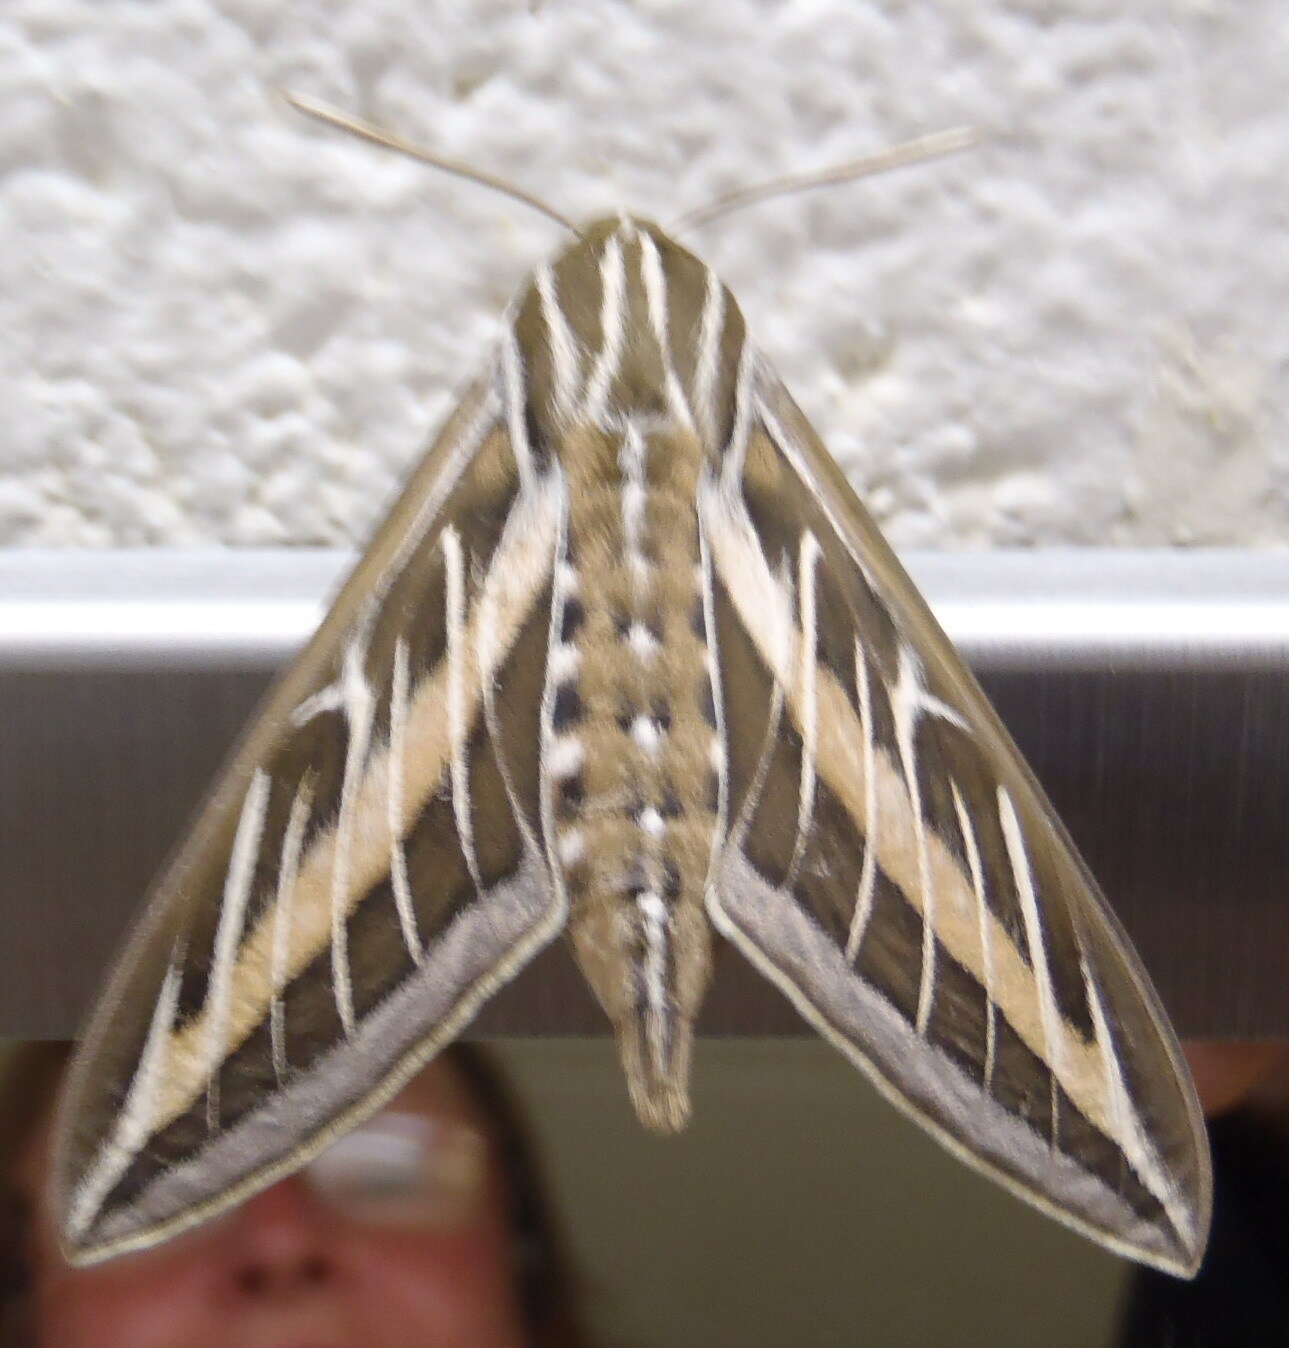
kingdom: Animalia
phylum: Arthropoda
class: Insecta
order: Lepidoptera
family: Sphingidae
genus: Hyles
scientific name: Hyles lineata
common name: White-lined sphinx
